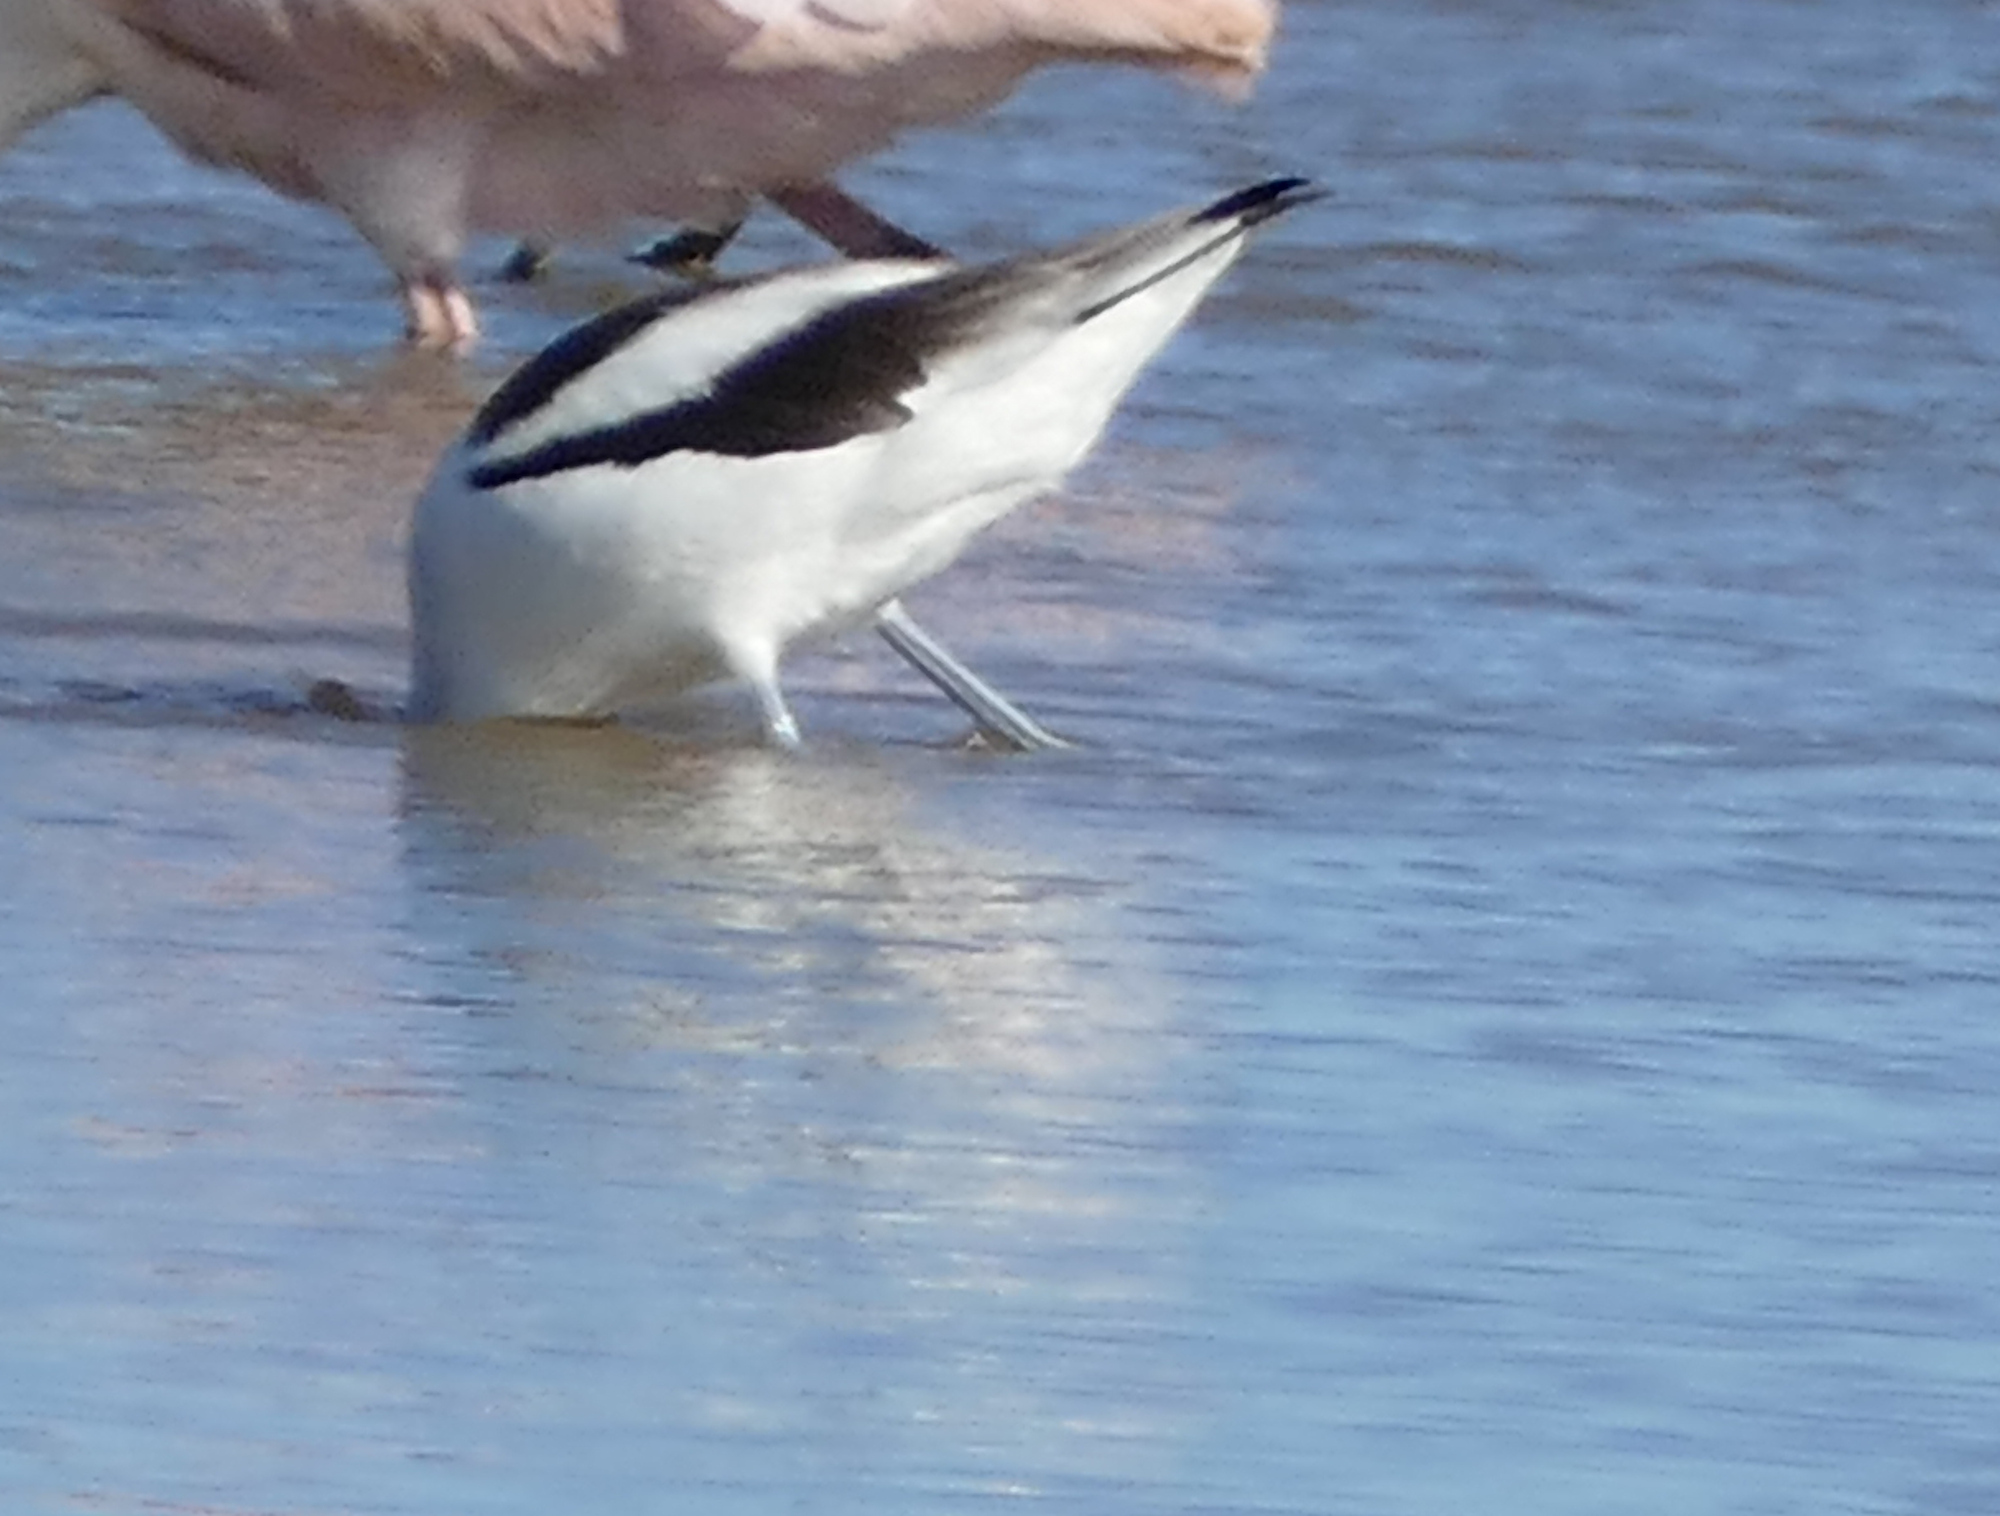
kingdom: Animalia
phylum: Chordata
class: Aves
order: Charadriiformes
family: Recurvirostridae
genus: Recurvirostra
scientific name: Recurvirostra americana
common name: American avocet
